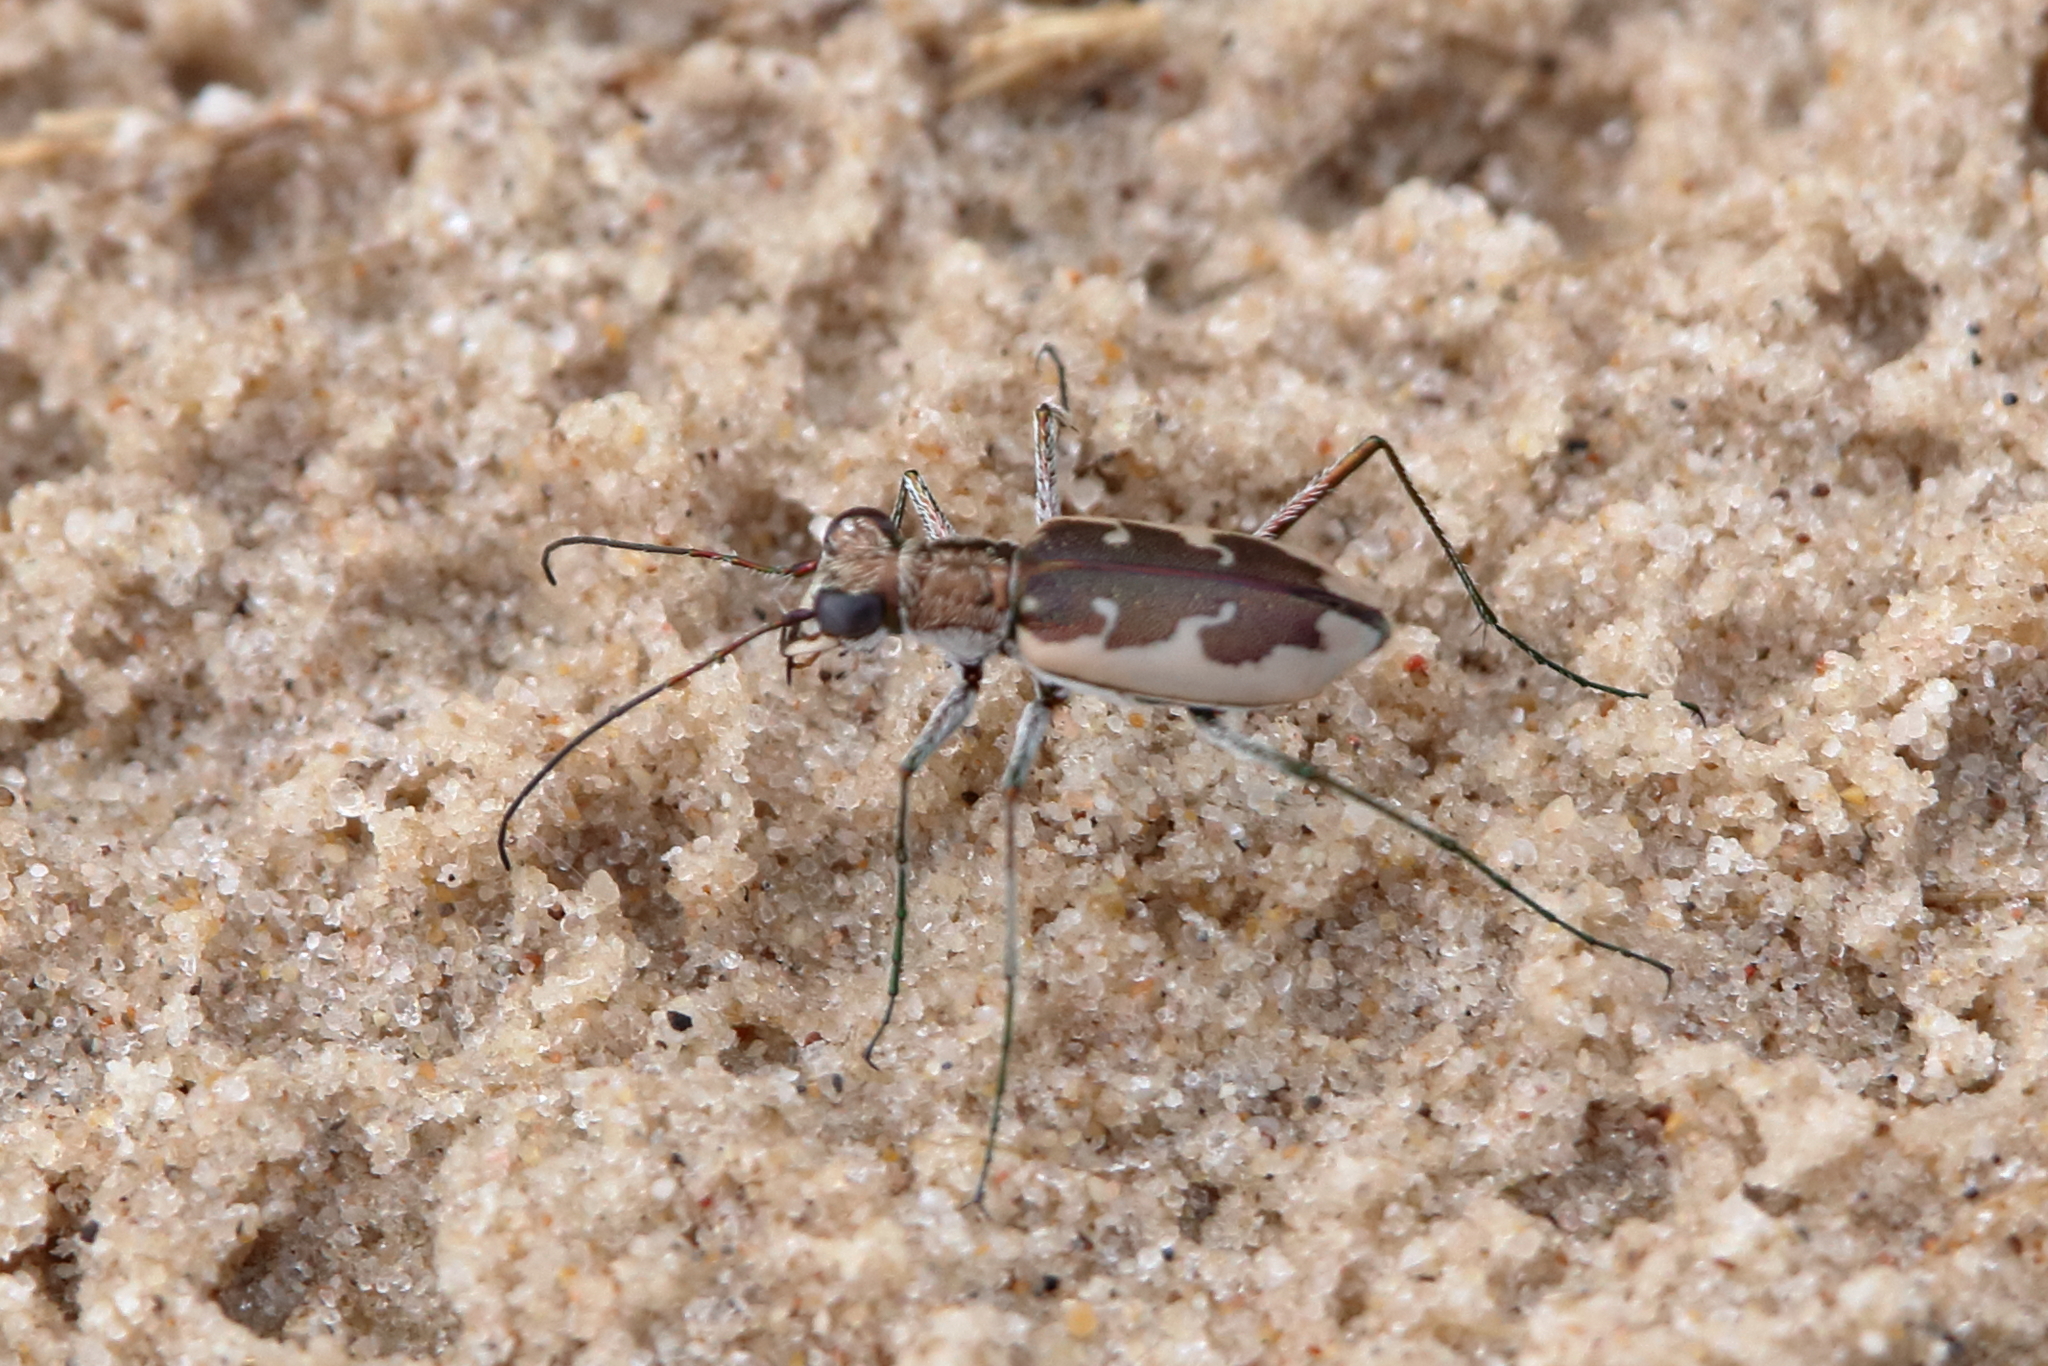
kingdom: Animalia
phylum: Arthropoda
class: Insecta
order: Coleoptera
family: Carabidae
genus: Ellipsoptera
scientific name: Ellipsoptera wapleri
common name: White-sand tiger beetle
